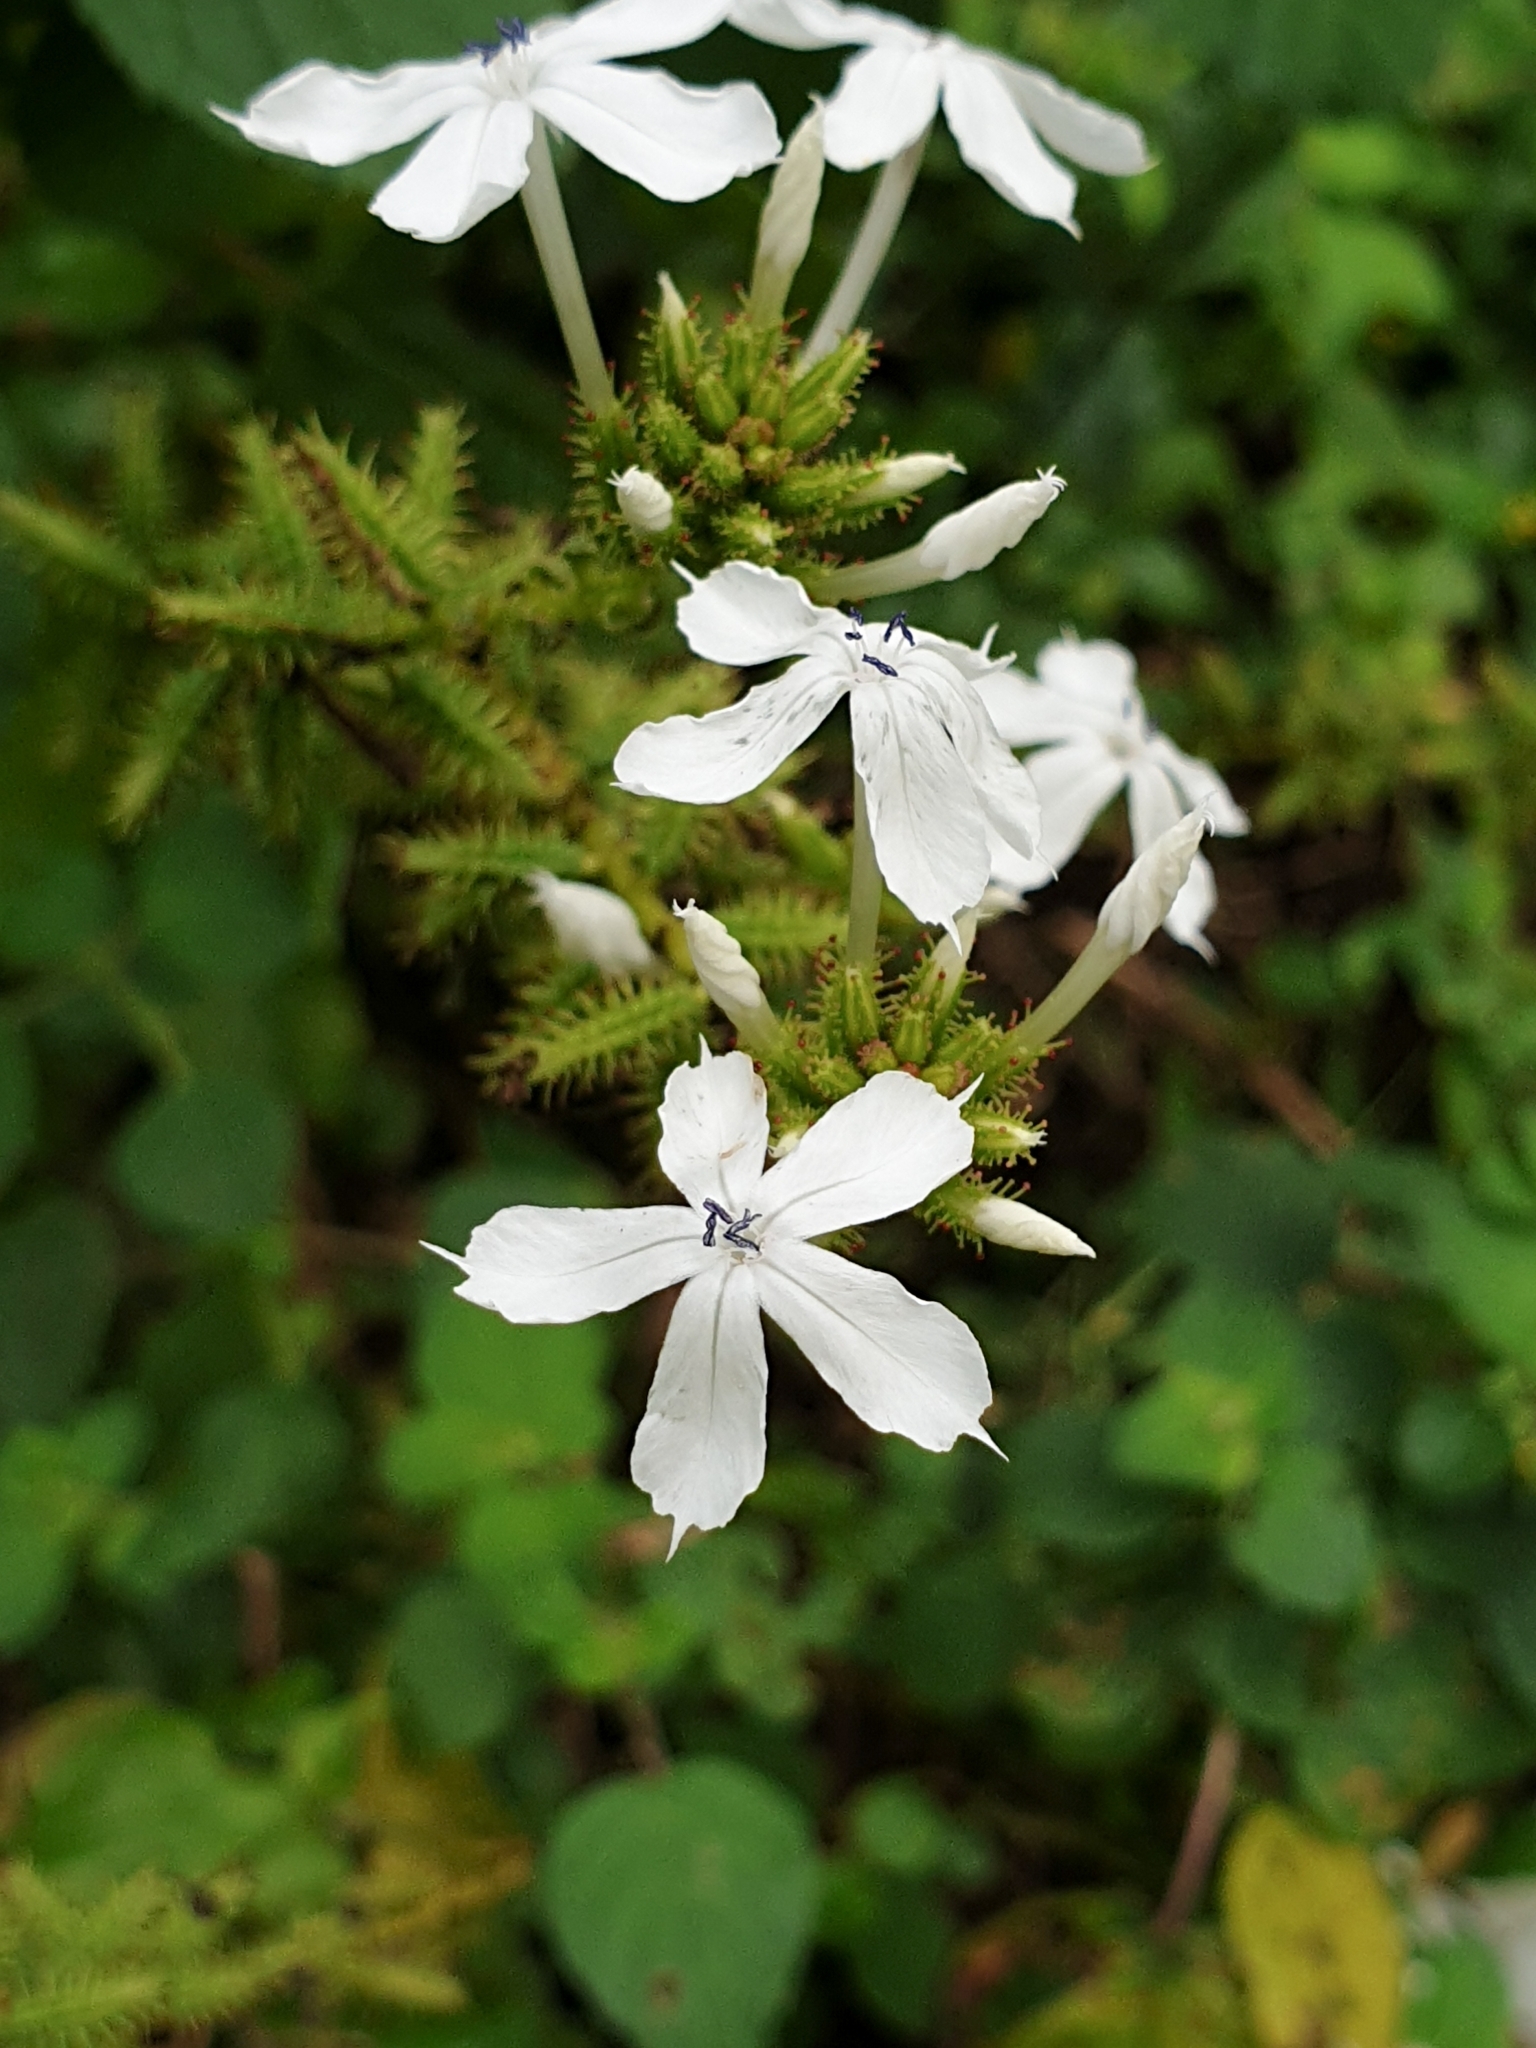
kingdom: Plantae
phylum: Tracheophyta
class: Magnoliopsida
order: Caryophyllales
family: Plumbaginaceae
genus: Plumbago
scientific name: Plumbago zeylanica
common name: Doctorbush
